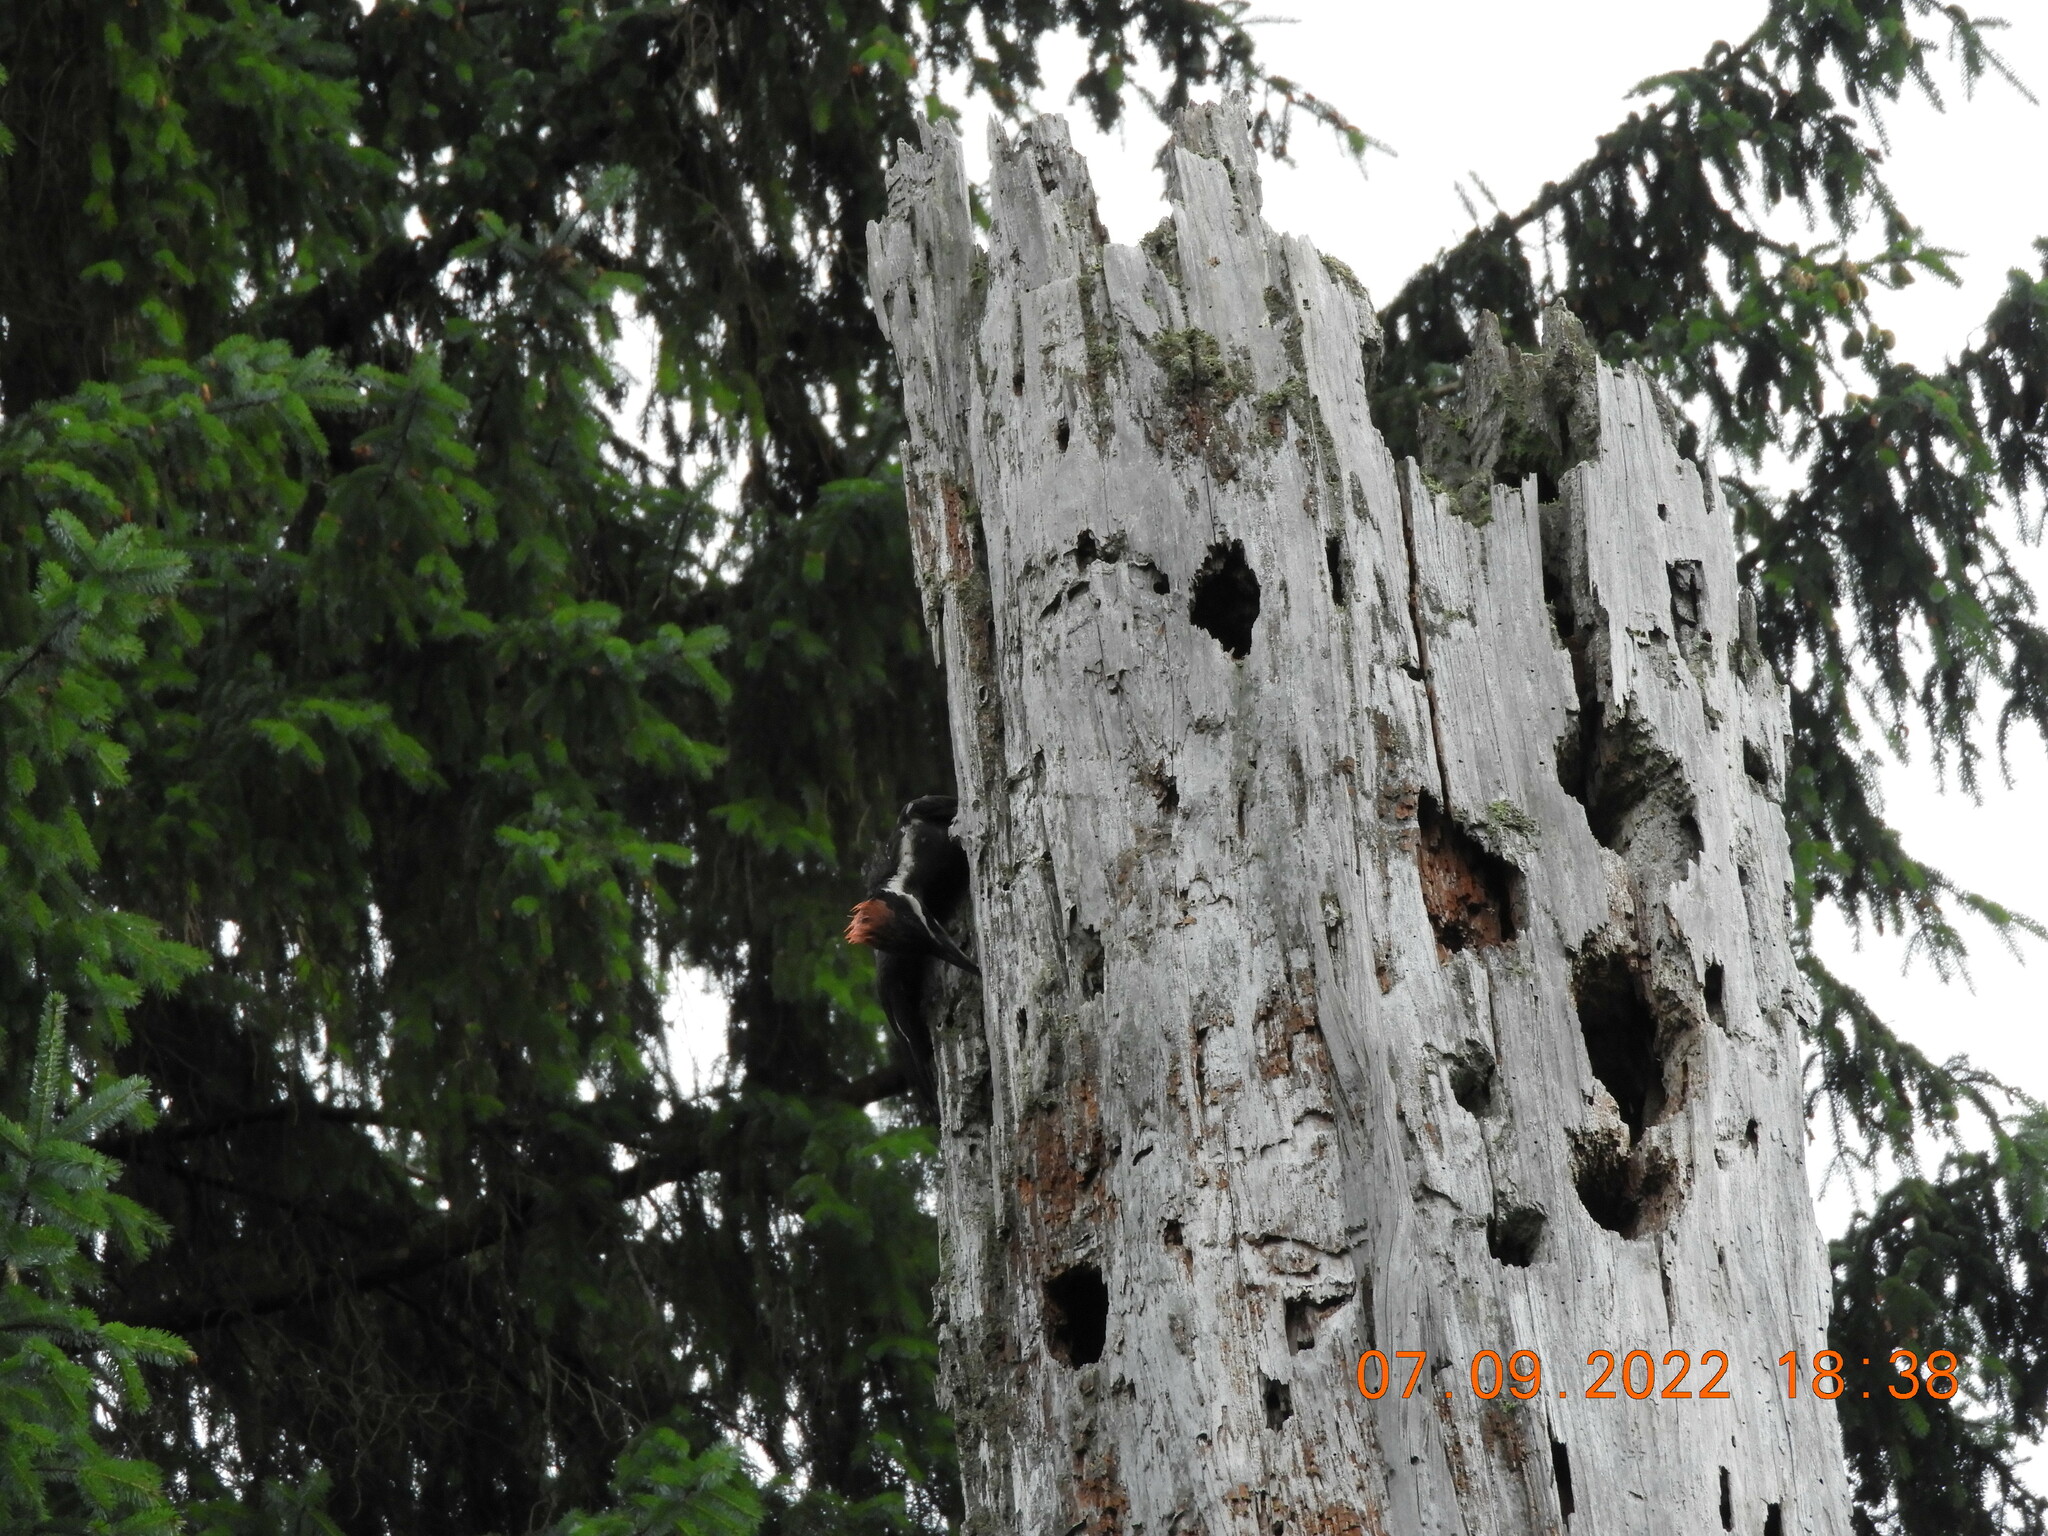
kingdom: Animalia
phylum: Chordata
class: Aves
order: Piciformes
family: Picidae
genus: Dryocopus
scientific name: Dryocopus pileatus
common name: Pileated woodpecker
